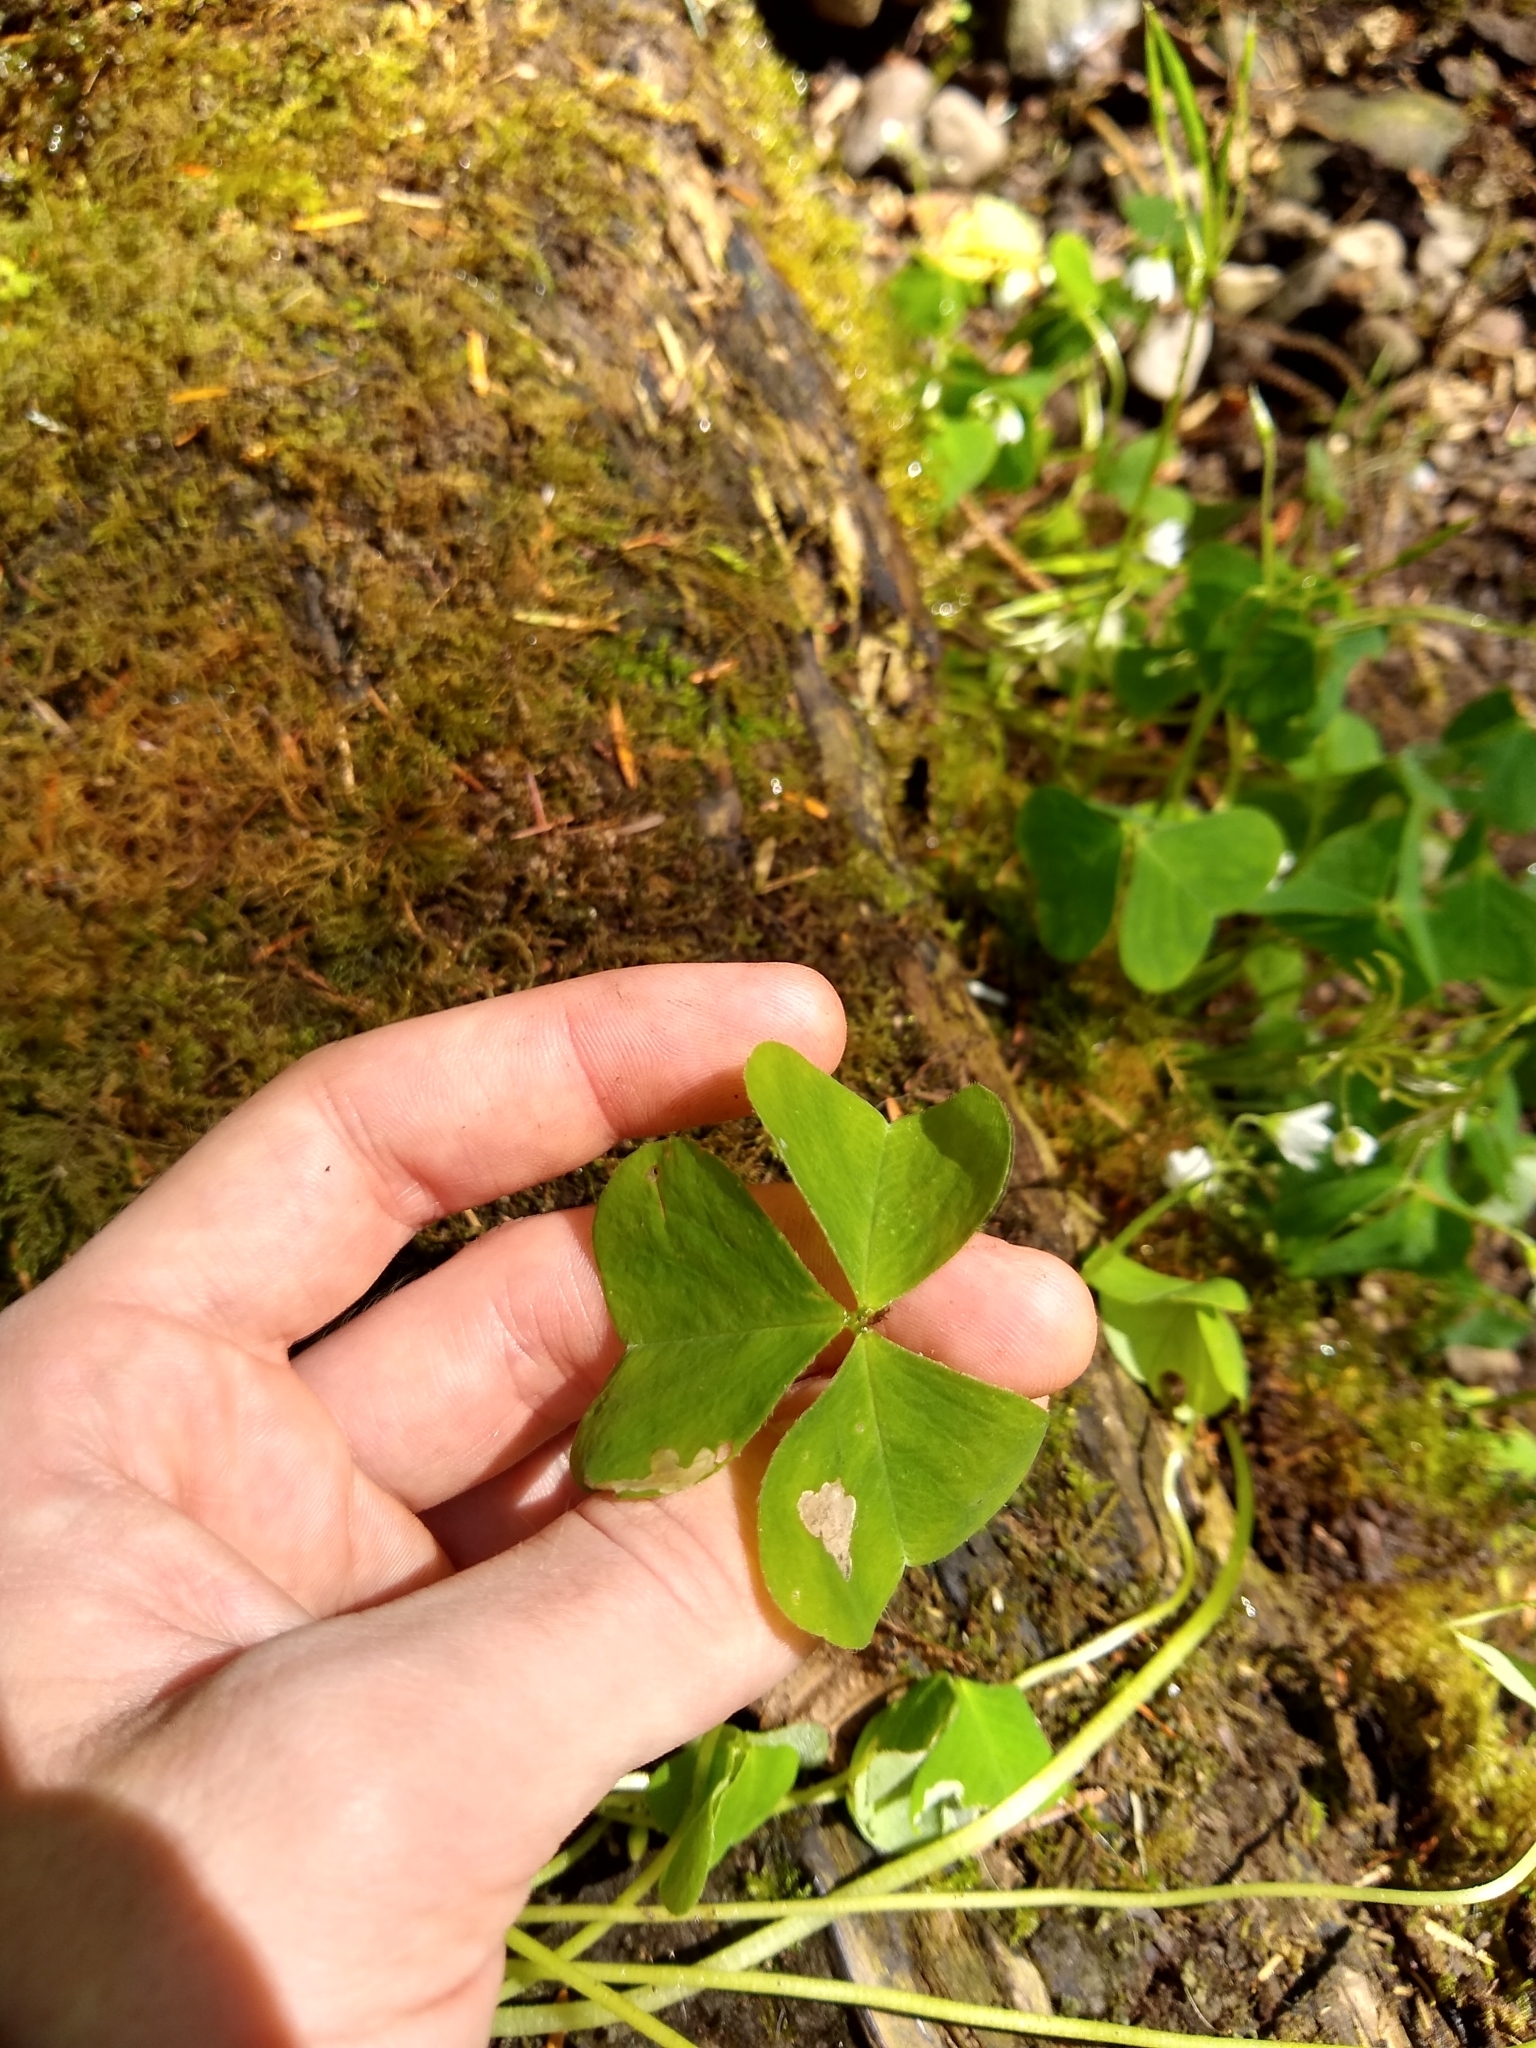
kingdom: Plantae
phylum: Tracheophyta
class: Magnoliopsida
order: Oxalidales
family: Oxalidaceae
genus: Oxalis
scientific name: Oxalis trilliifolia
